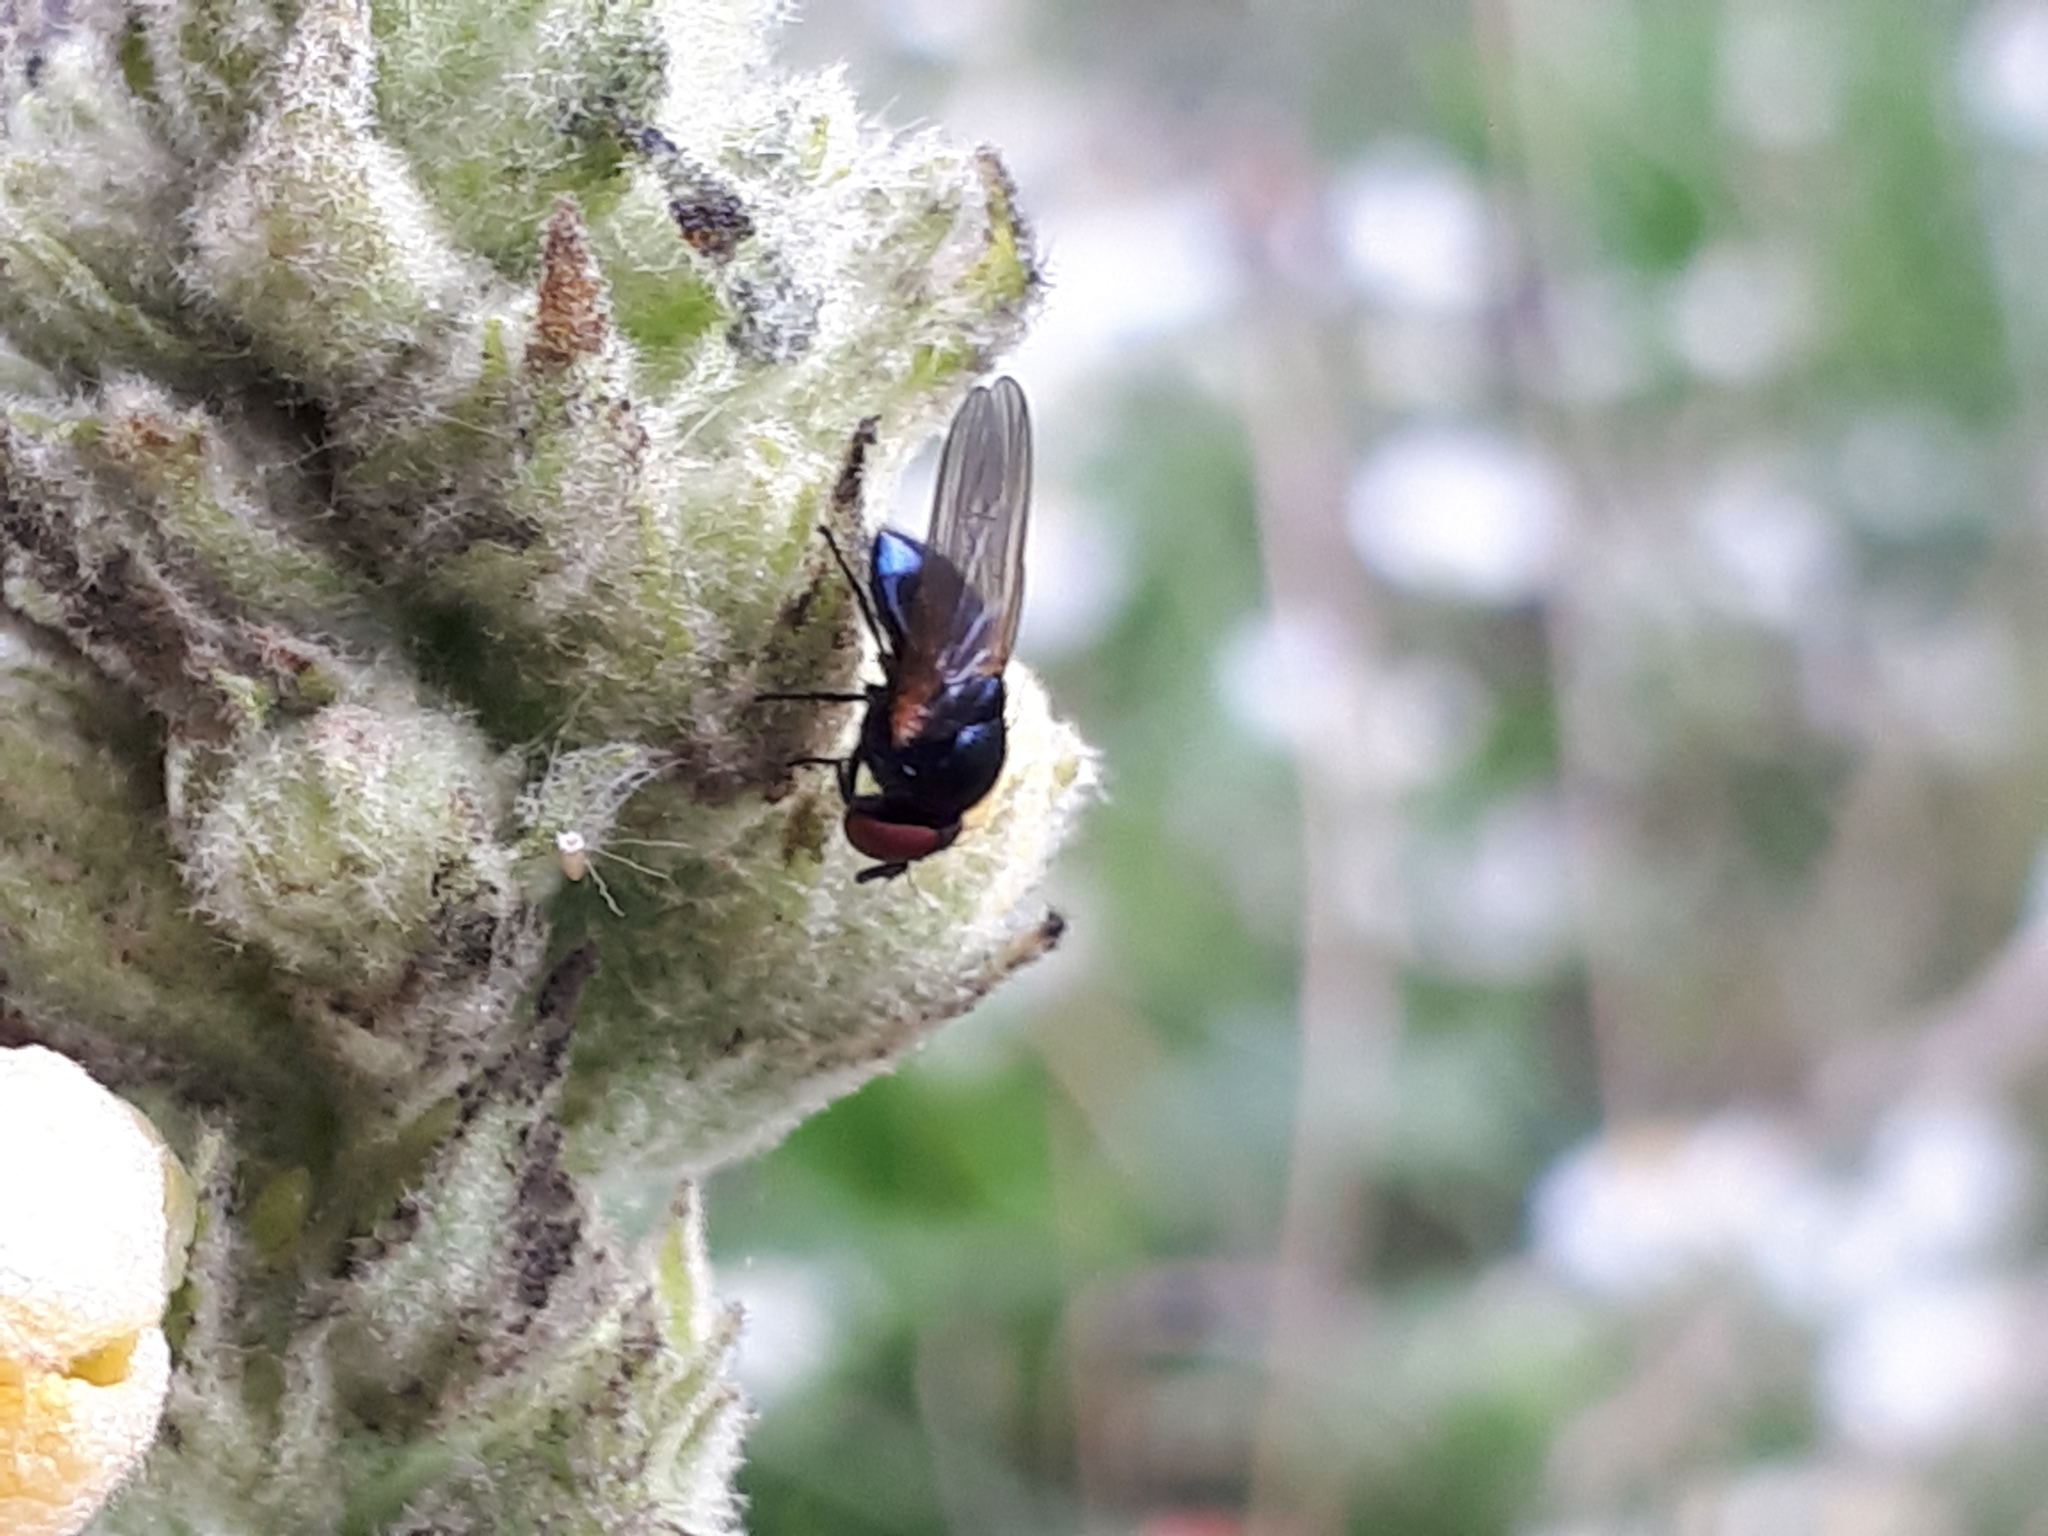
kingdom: Animalia
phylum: Arthropoda
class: Insecta
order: Diptera
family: Lonchaeidae
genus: Silba
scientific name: Silba fumosa
